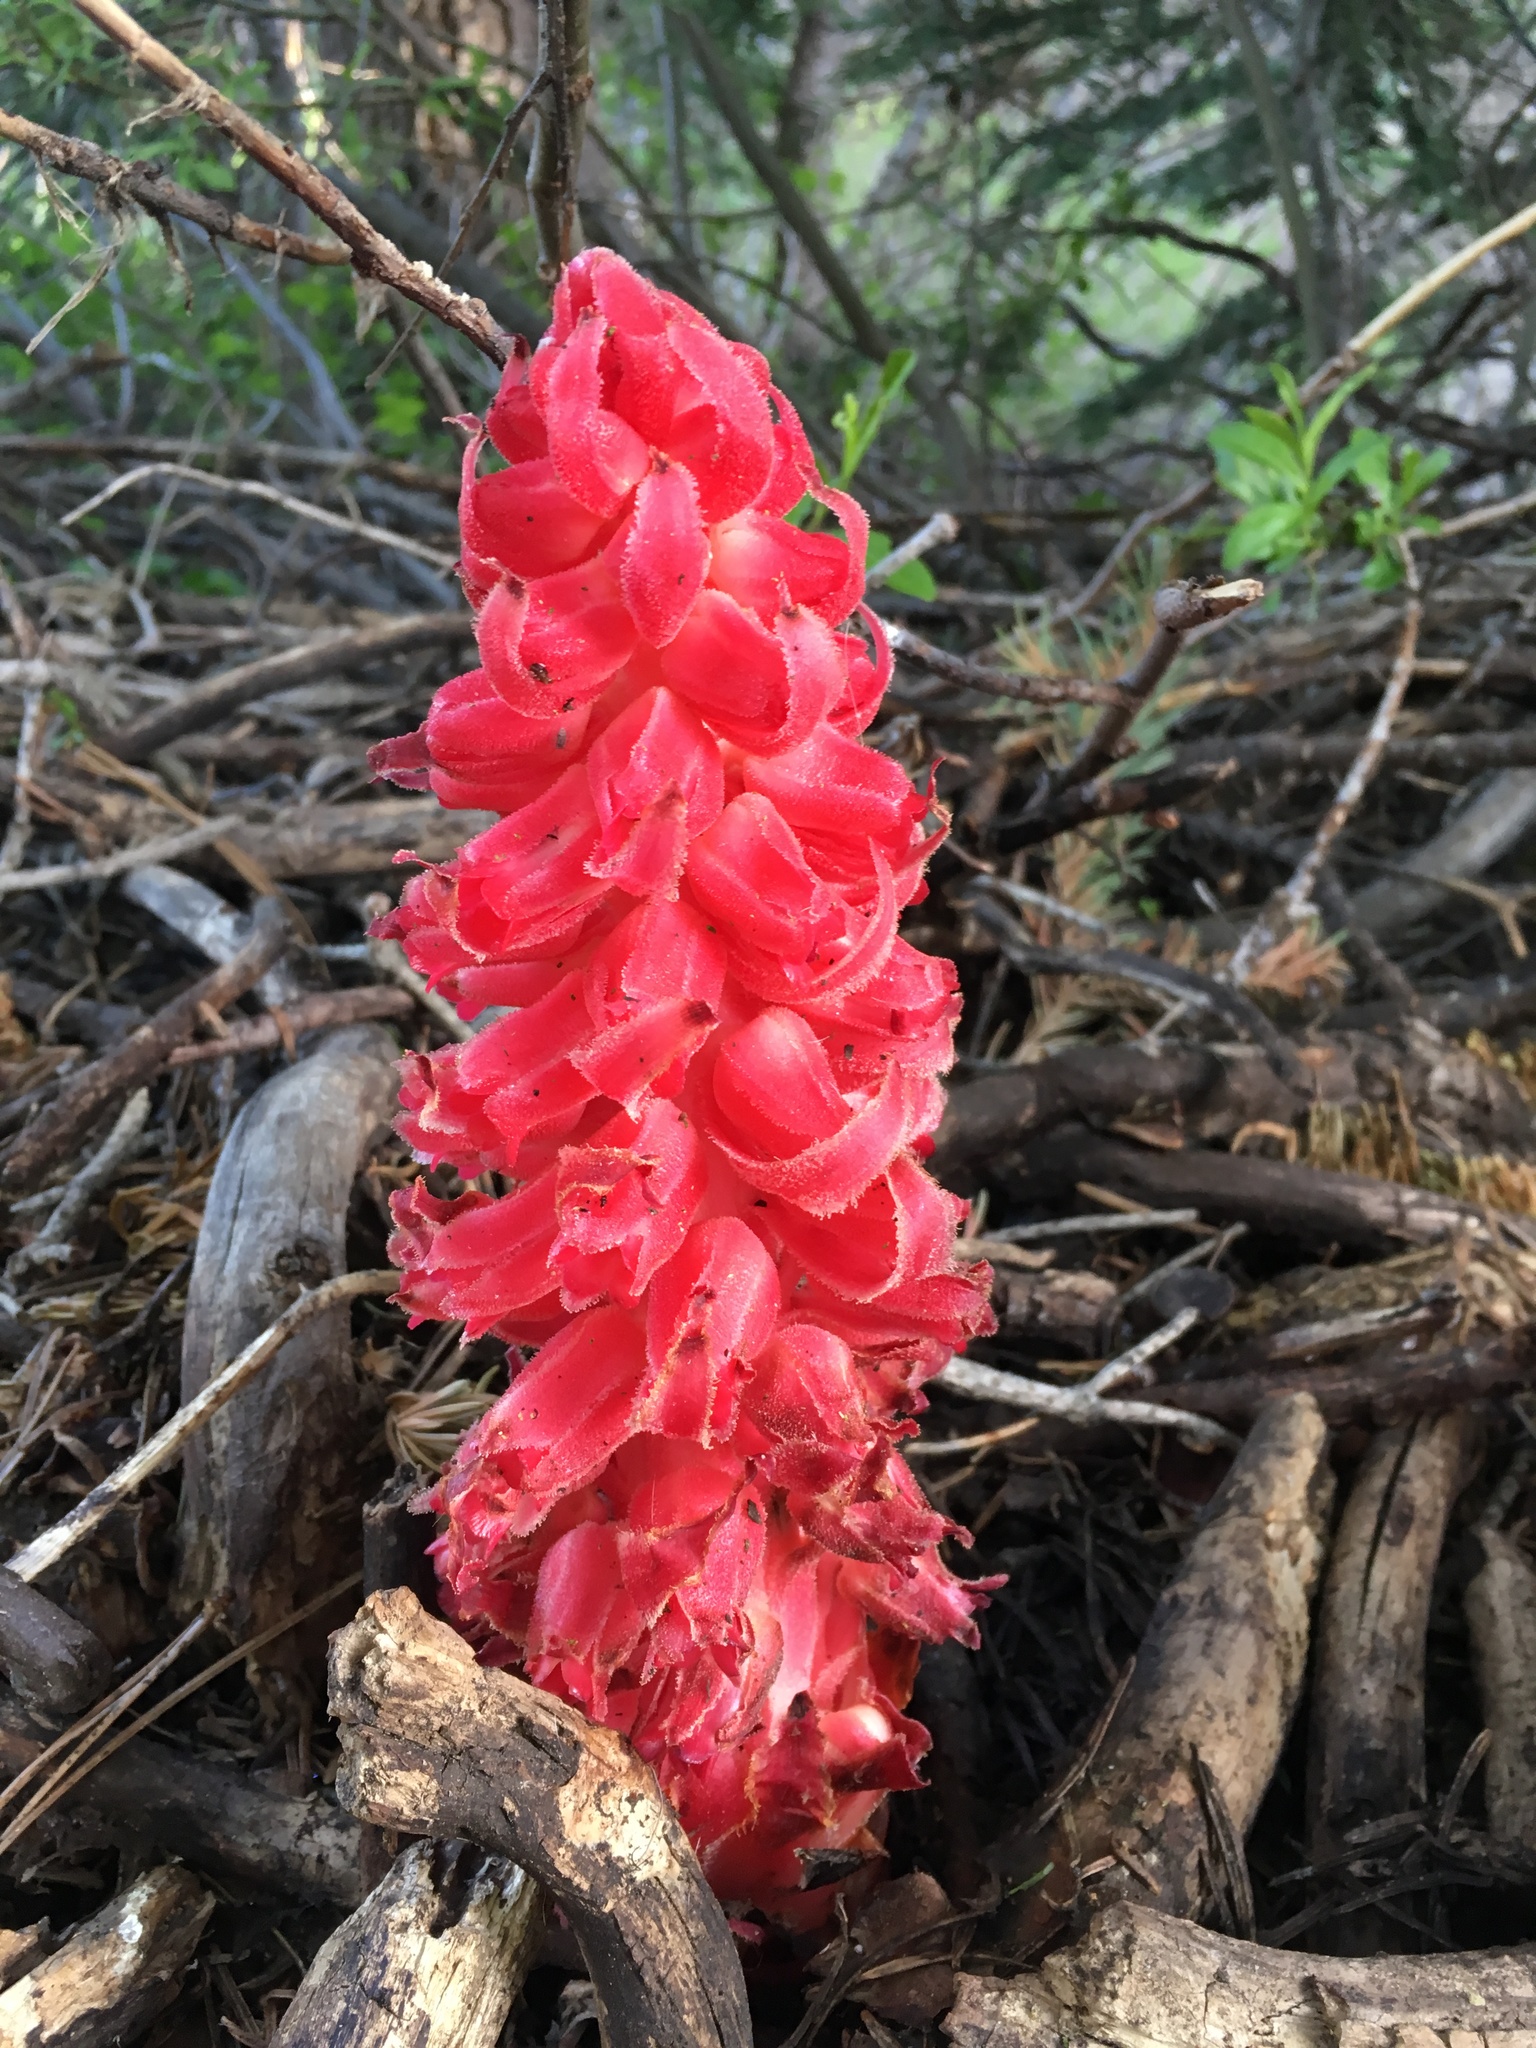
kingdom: Plantae
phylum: Tracheophyta
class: Magnoliopsida
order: Ericales
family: Ericaceae
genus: Sarcodes
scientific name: Sarcodes sanguinea
